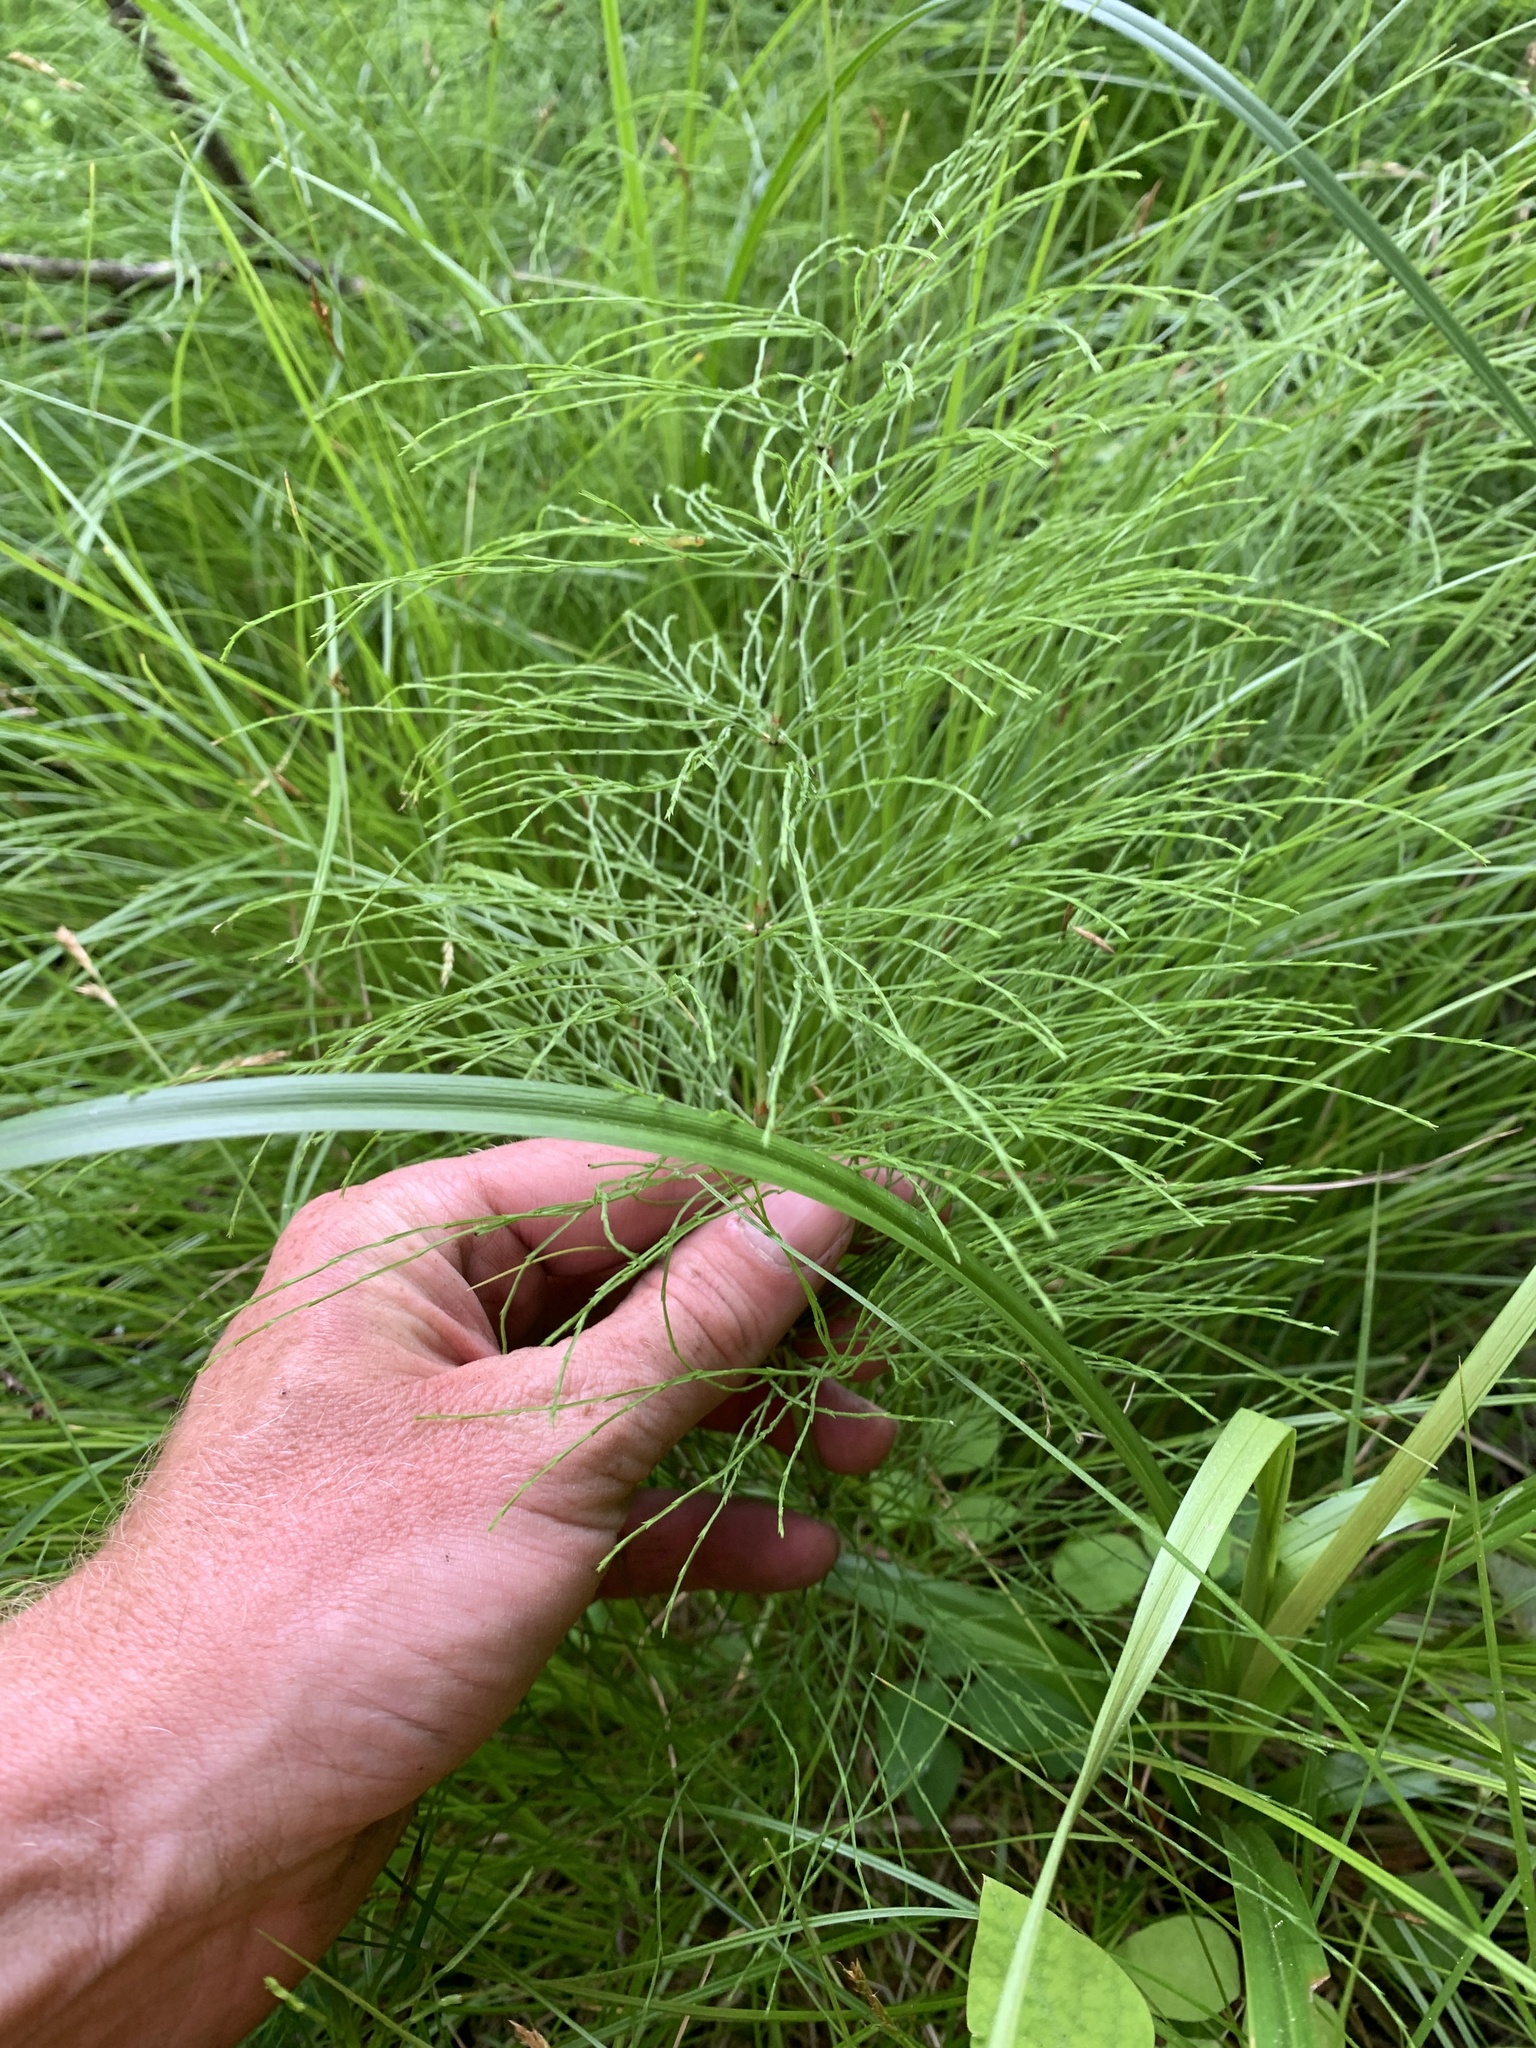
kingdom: Plantae
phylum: Tracheophyta
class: Polypodiopsida
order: Equisetales
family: Equisetaceae
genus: Equisetum
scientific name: Equisetum sylvaticum
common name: Wood horsetail
